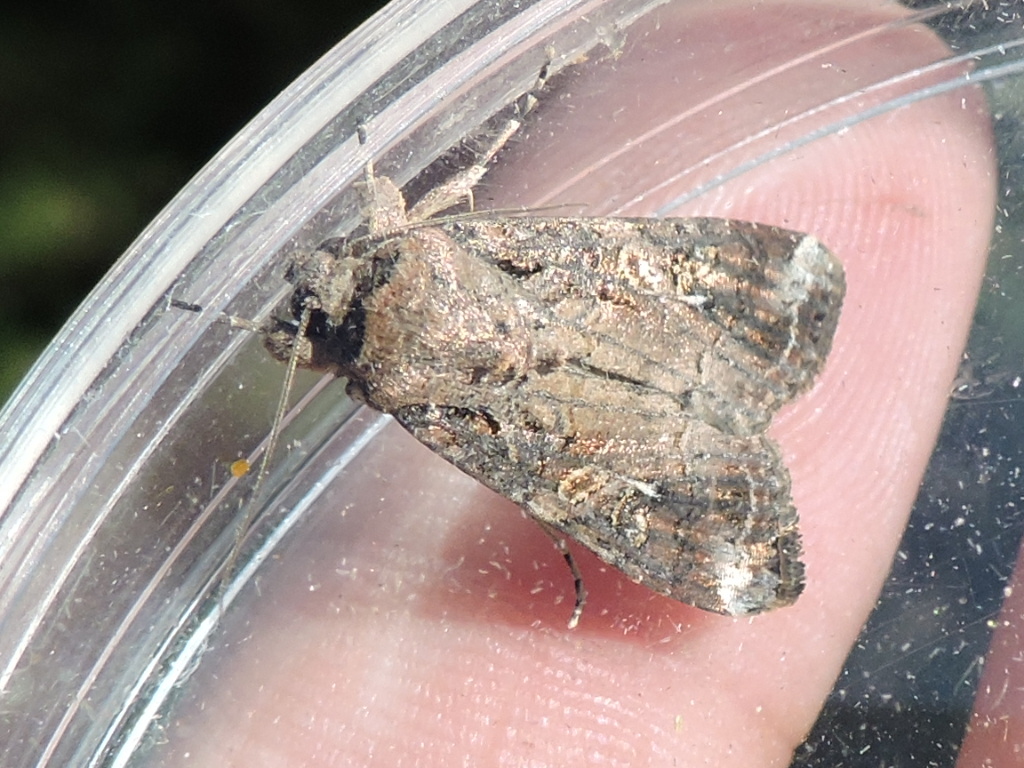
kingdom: Animalia
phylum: Arthropoda
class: Insecta
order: Lepidoptera
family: Noctuidae
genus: Spodoptera
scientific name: Spodoptera frugiperda
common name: Fall armyworm
